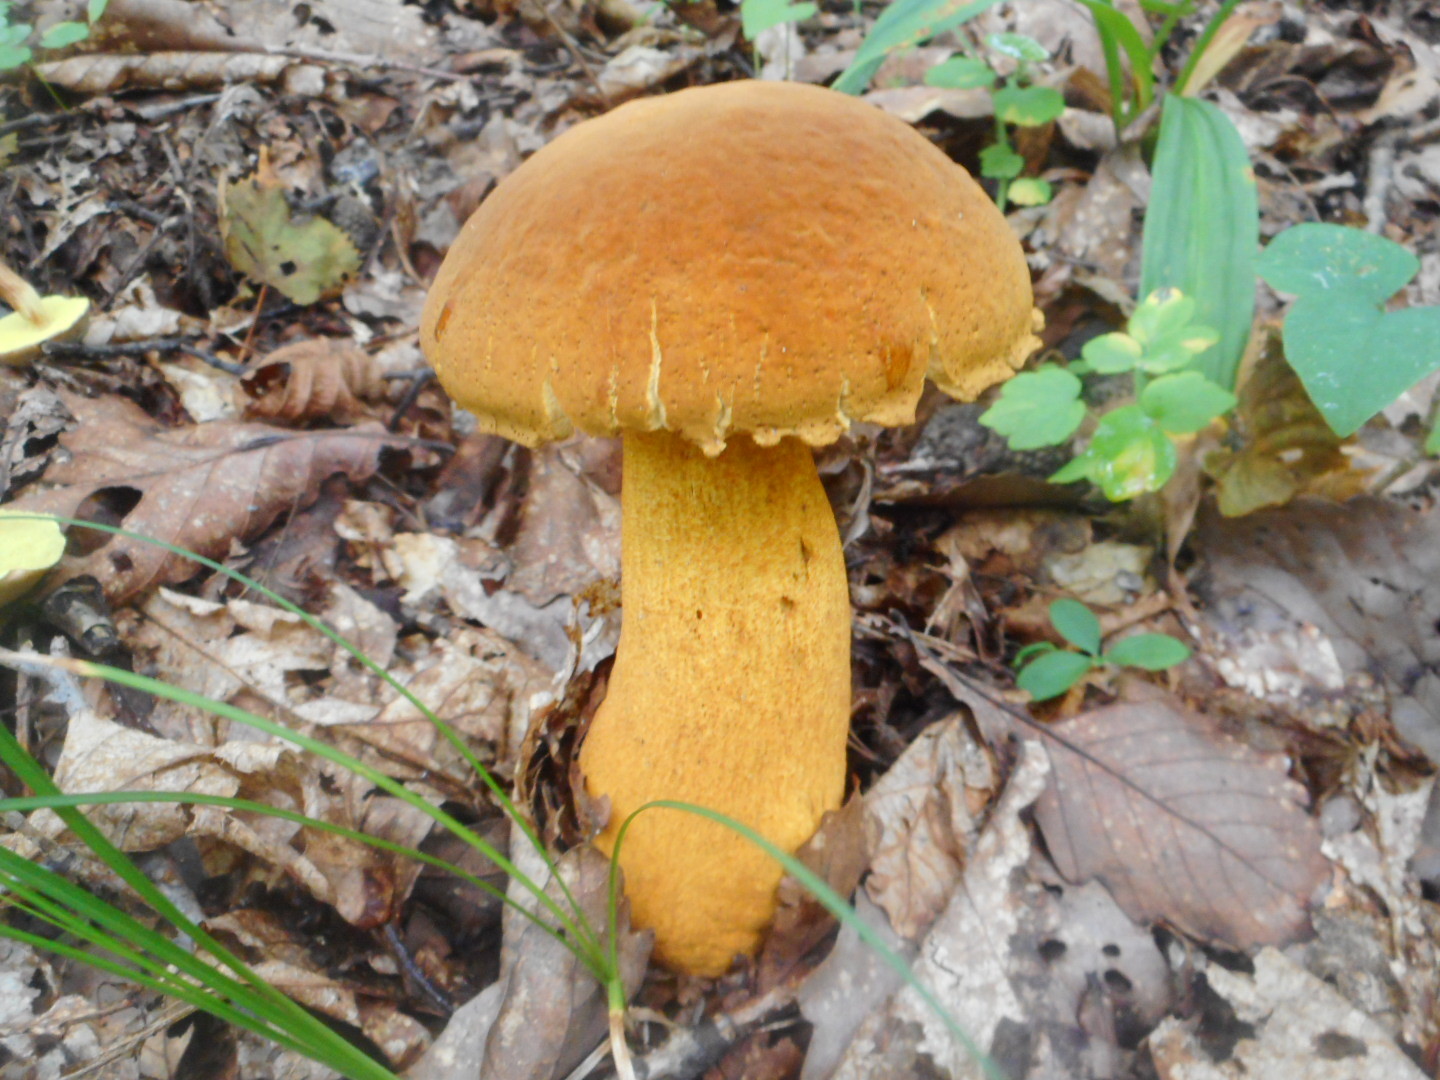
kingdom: Fungi
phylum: Basidiomycota
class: Agaricomycetes
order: Boletales
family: Boletaceae
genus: Rugiboletus
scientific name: Rugiboletus extremiorientalis
